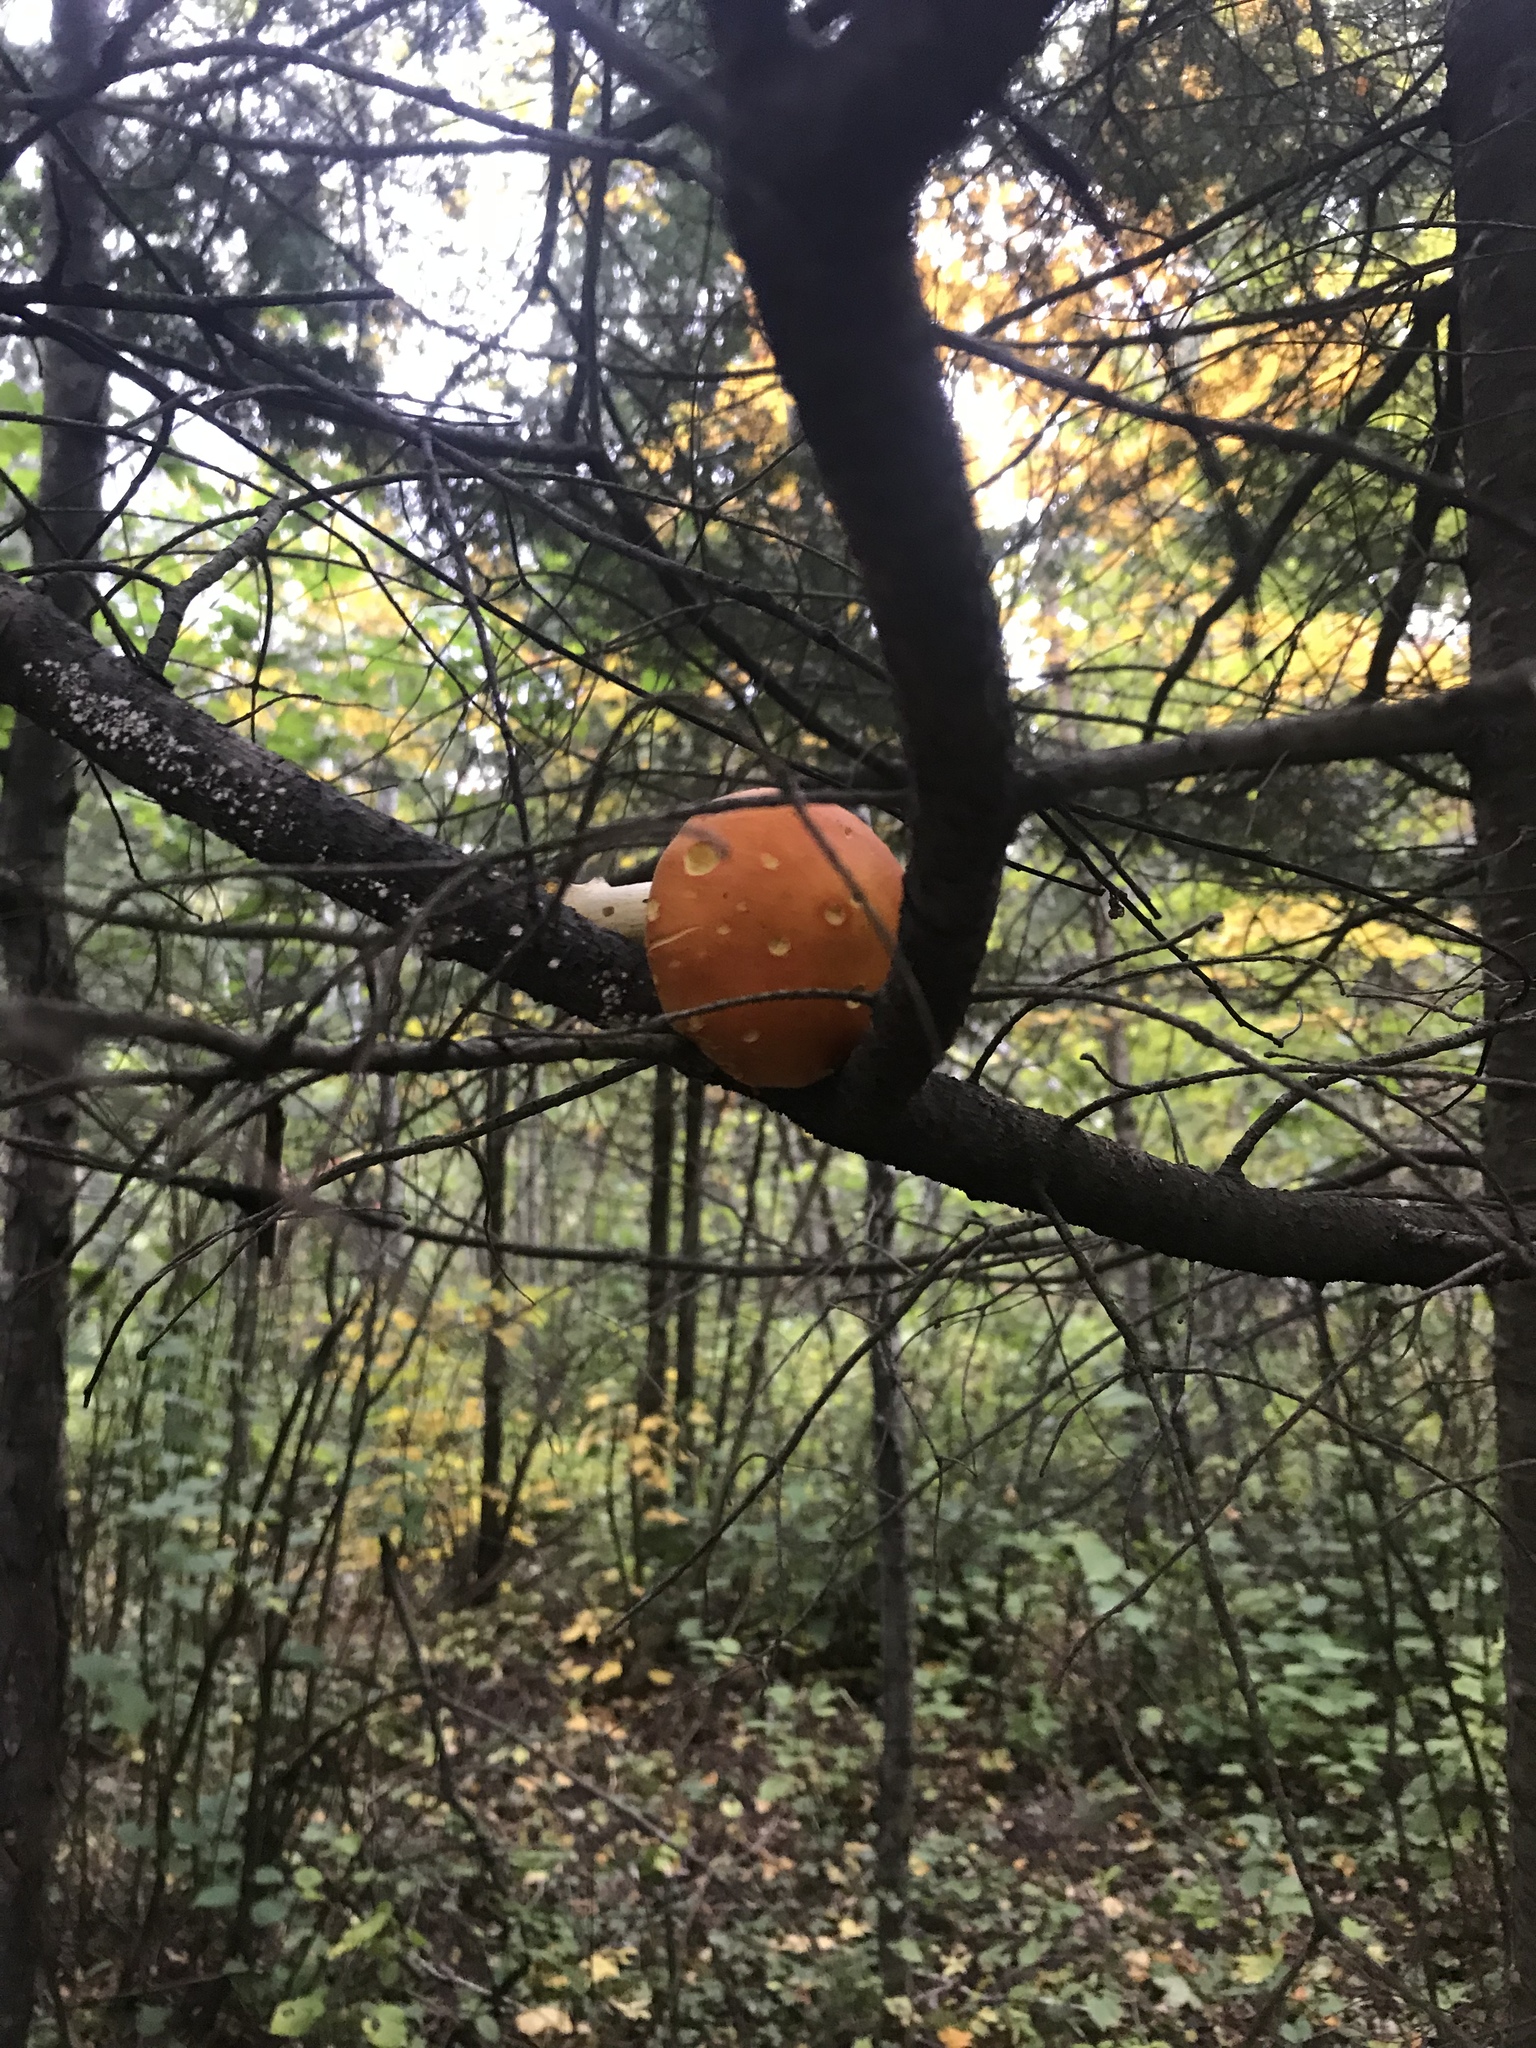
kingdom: Fungi
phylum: Basidiomycota
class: Agaricomycetes
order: Agaricales
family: Amanitaceae
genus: Amanita
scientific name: Amanita flavoconia
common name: Yellow patches
